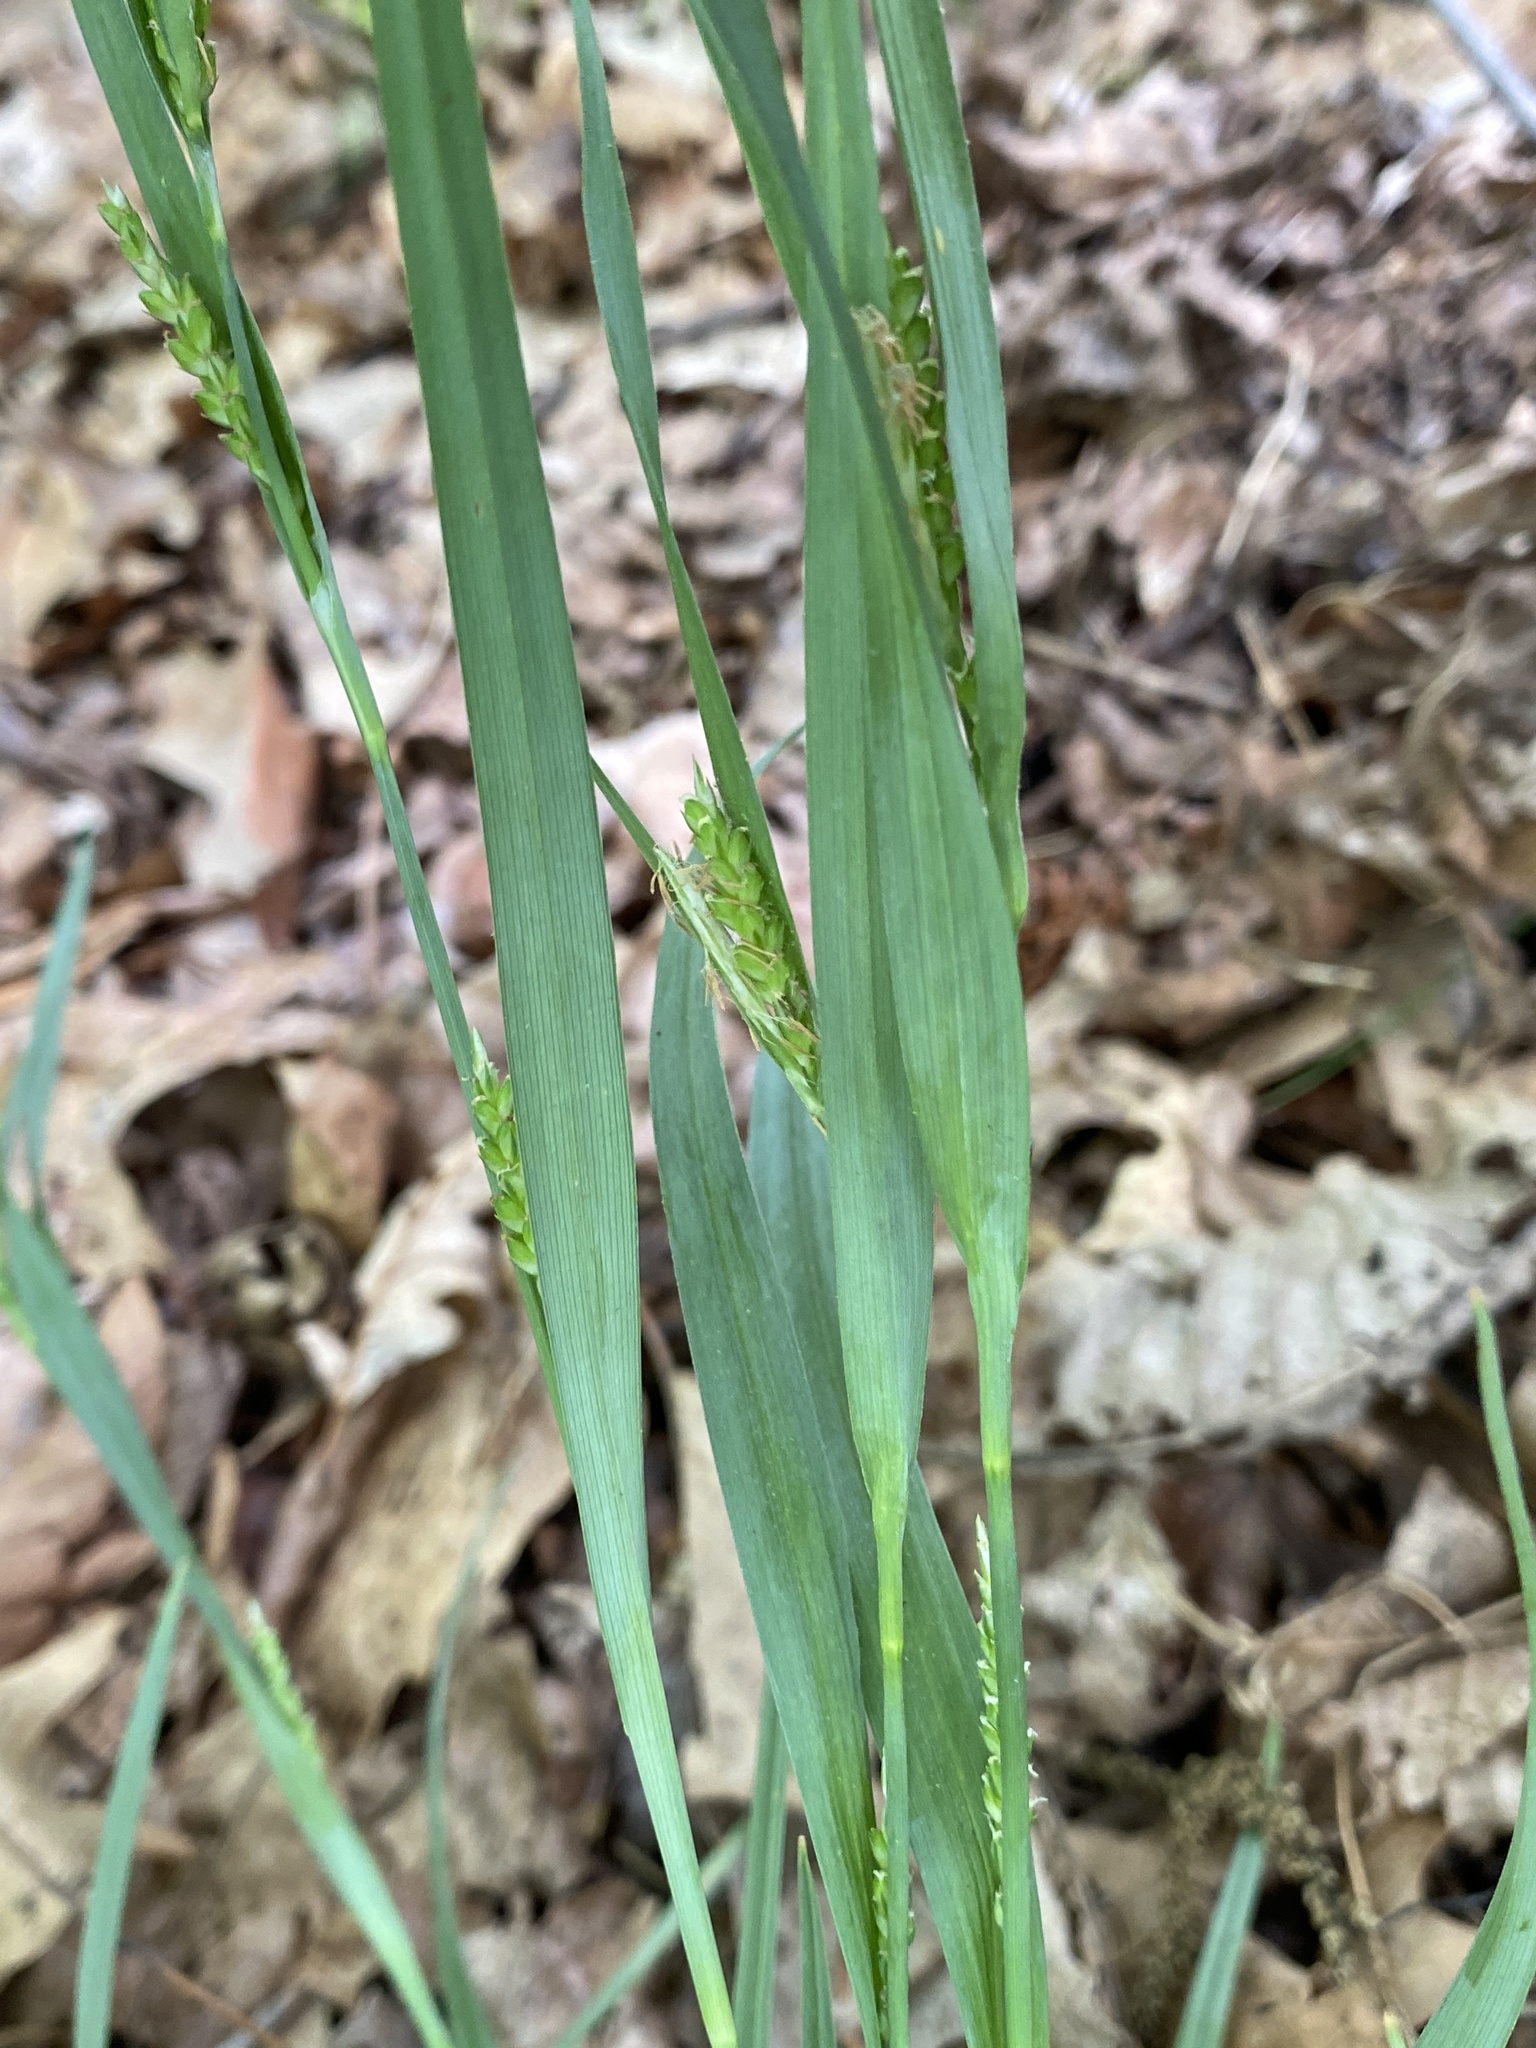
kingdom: Plantae
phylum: Tracheophyta
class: Liliopsida
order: Poales
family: Cyperaceae
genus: Carex
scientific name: Carex glaucodea
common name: Blue sedge
